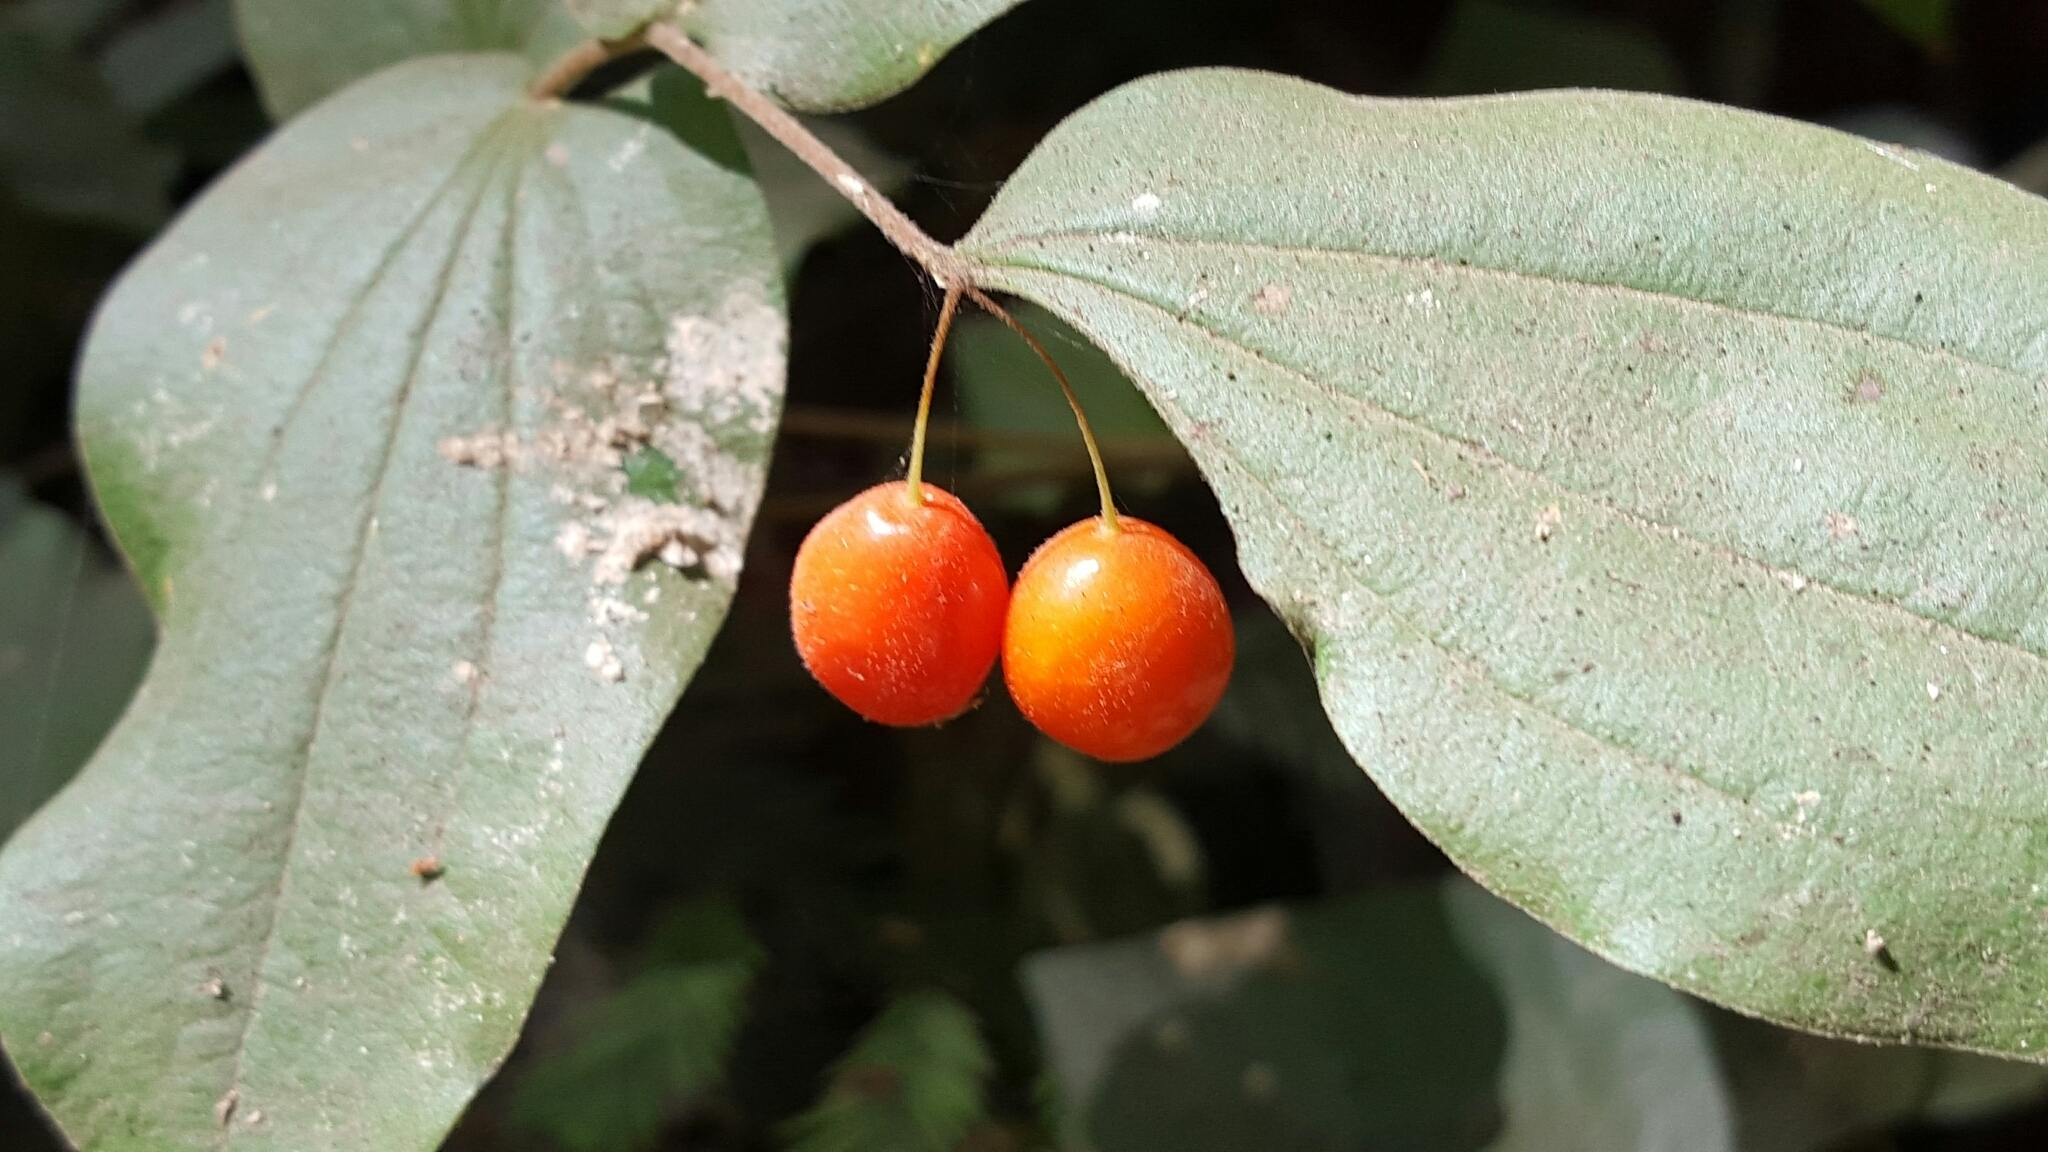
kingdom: Plantae
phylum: Tracheophyta
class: Liliopsida
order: Liliales
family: Liliaceae
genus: Prosartes
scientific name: Prosartes hookeri
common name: Fairy-bells
